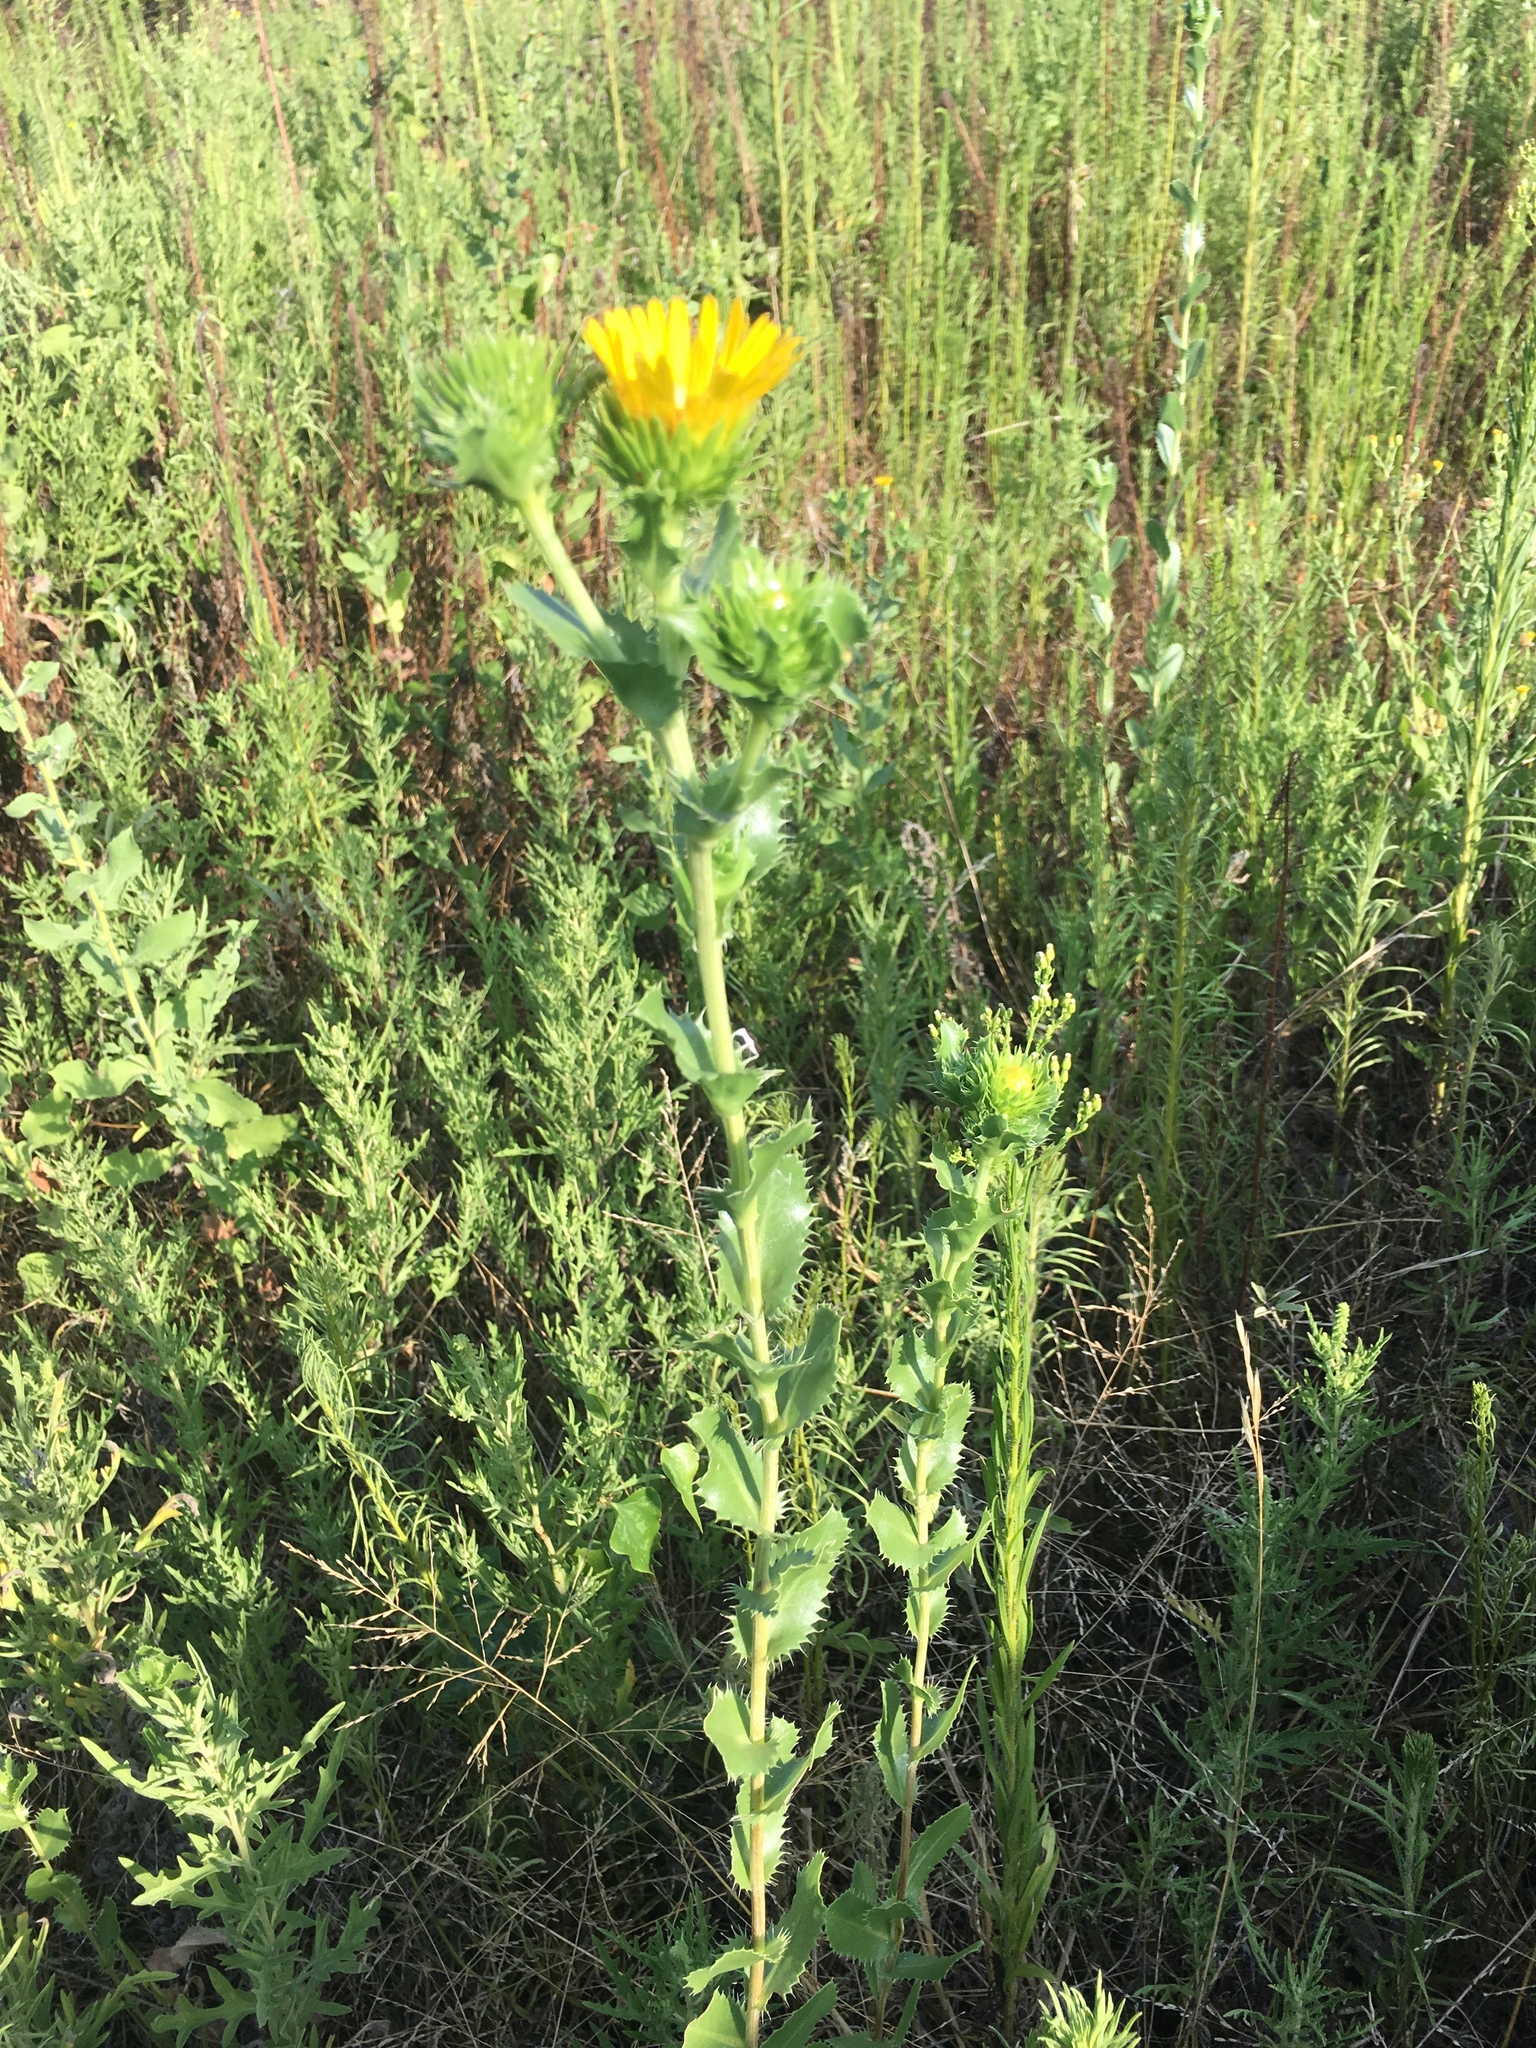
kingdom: Plantae
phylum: Tracheophyta
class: Magnoliopsida
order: Asterales
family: Asteraceae
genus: Grindelia
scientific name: Grindelia ciliata
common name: Goldenweed
